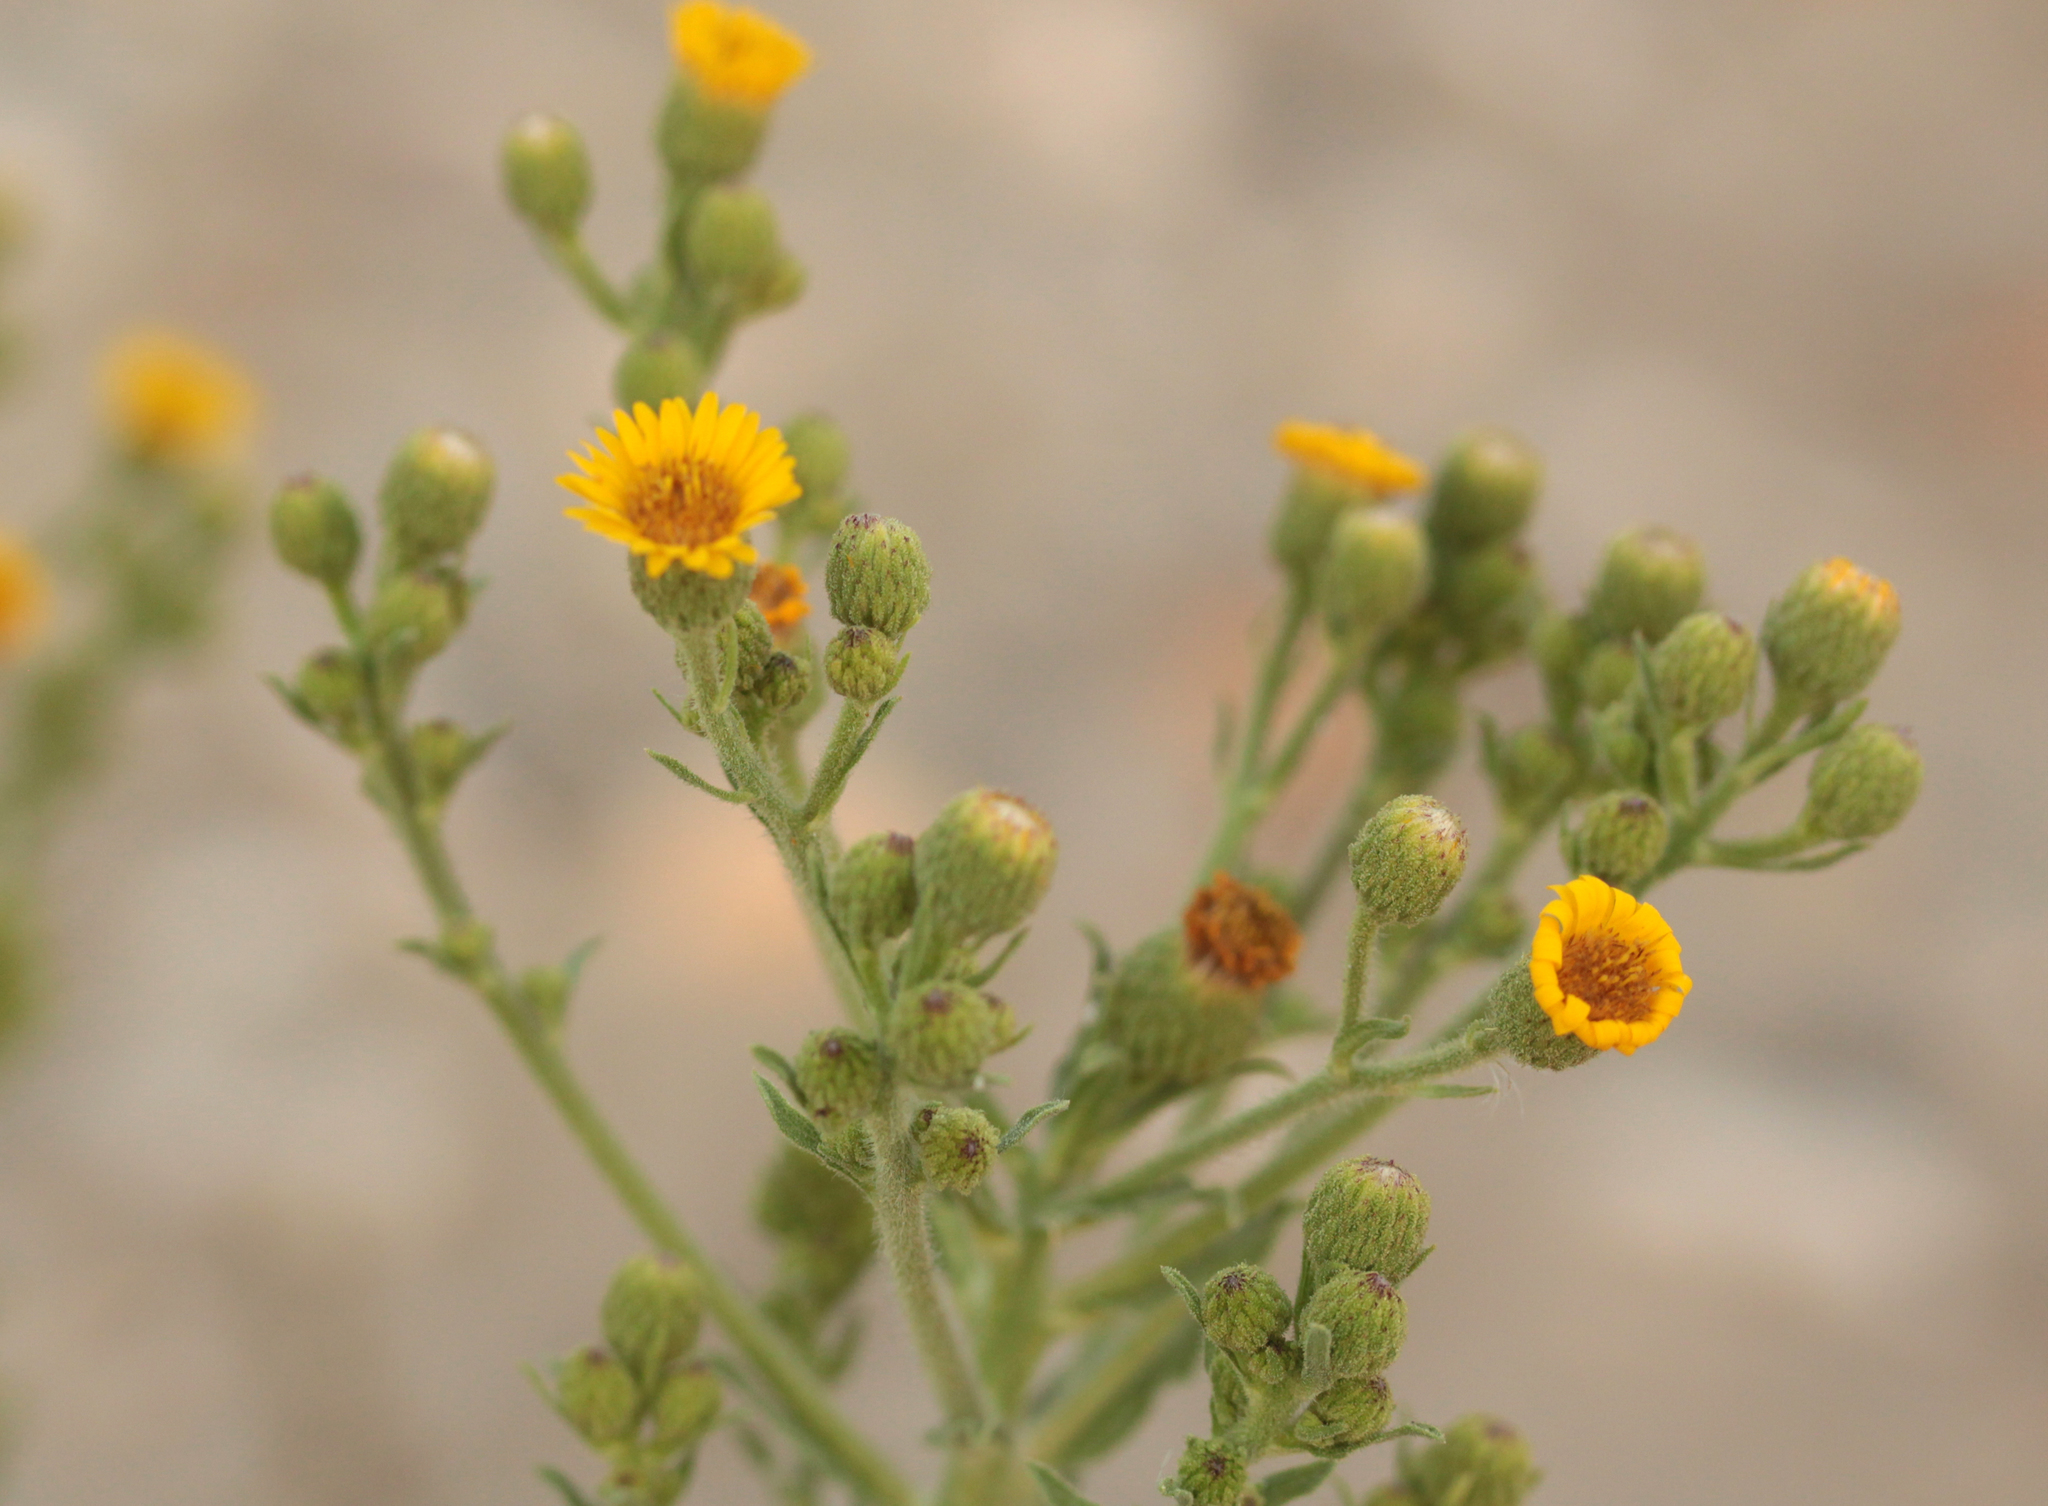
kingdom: Plantae
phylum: Tracheophyta
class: Magnoliopsida
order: Asterales
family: Asteraceae
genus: Heterotheca
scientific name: Heterotheca grandiflora
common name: Telegraphweed
